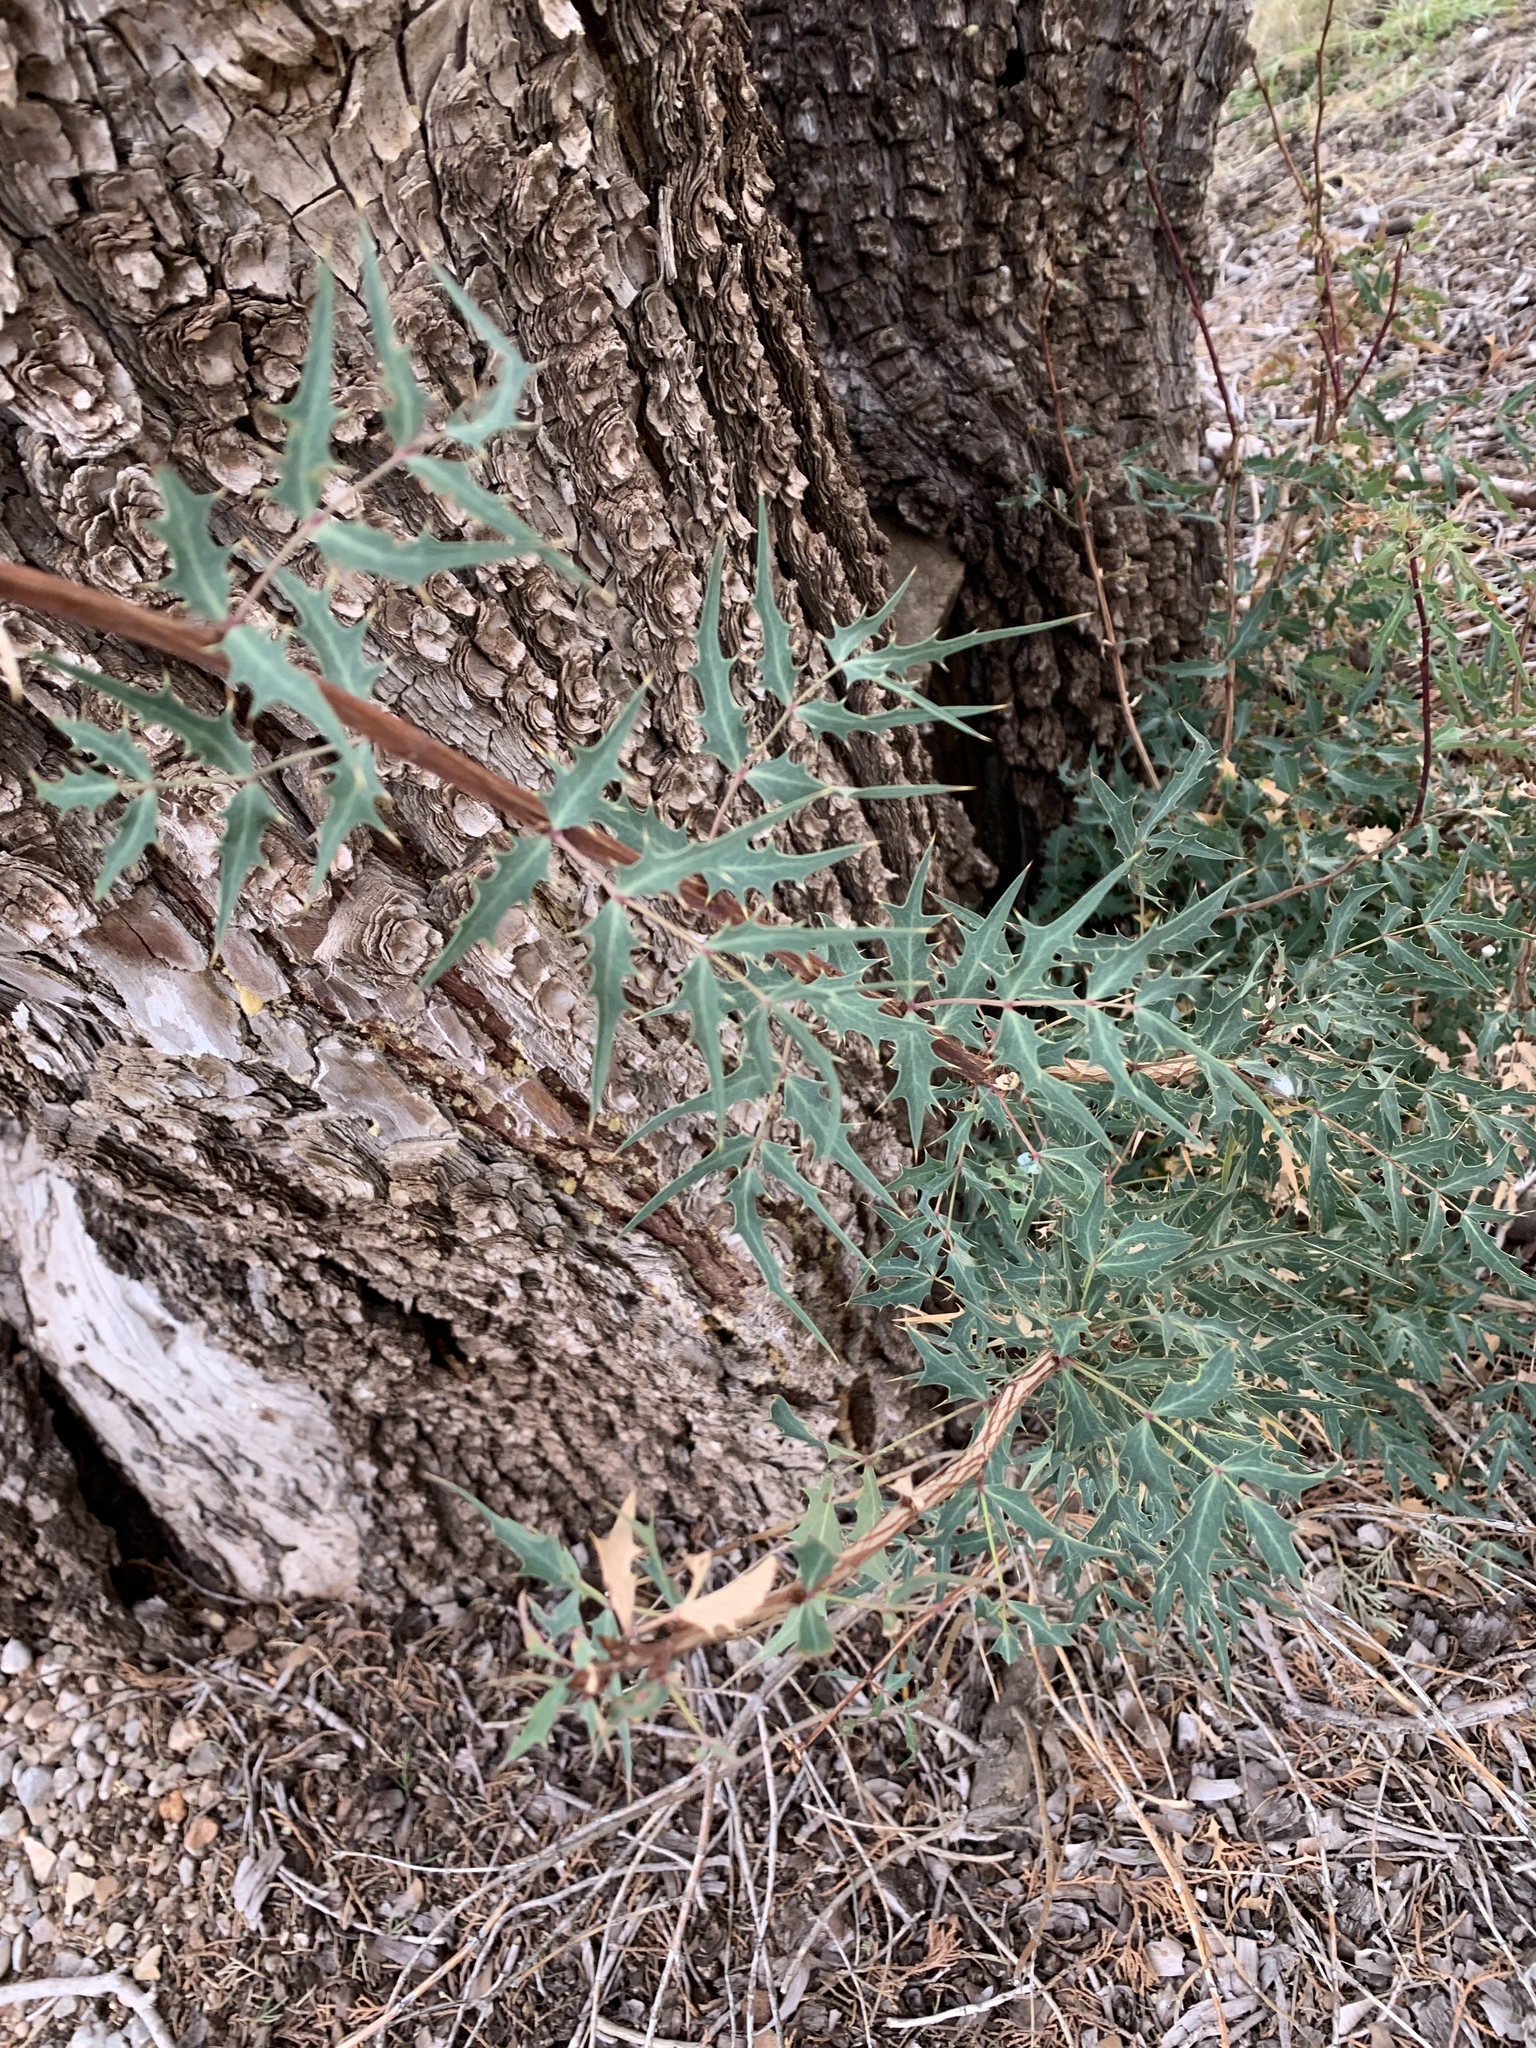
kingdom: Plantae
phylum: Tracheophyta
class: Magnoliopsida
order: Ranunculales
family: Berberidaceae
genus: Alloberberis
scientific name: Alloberberis haematocarpa
